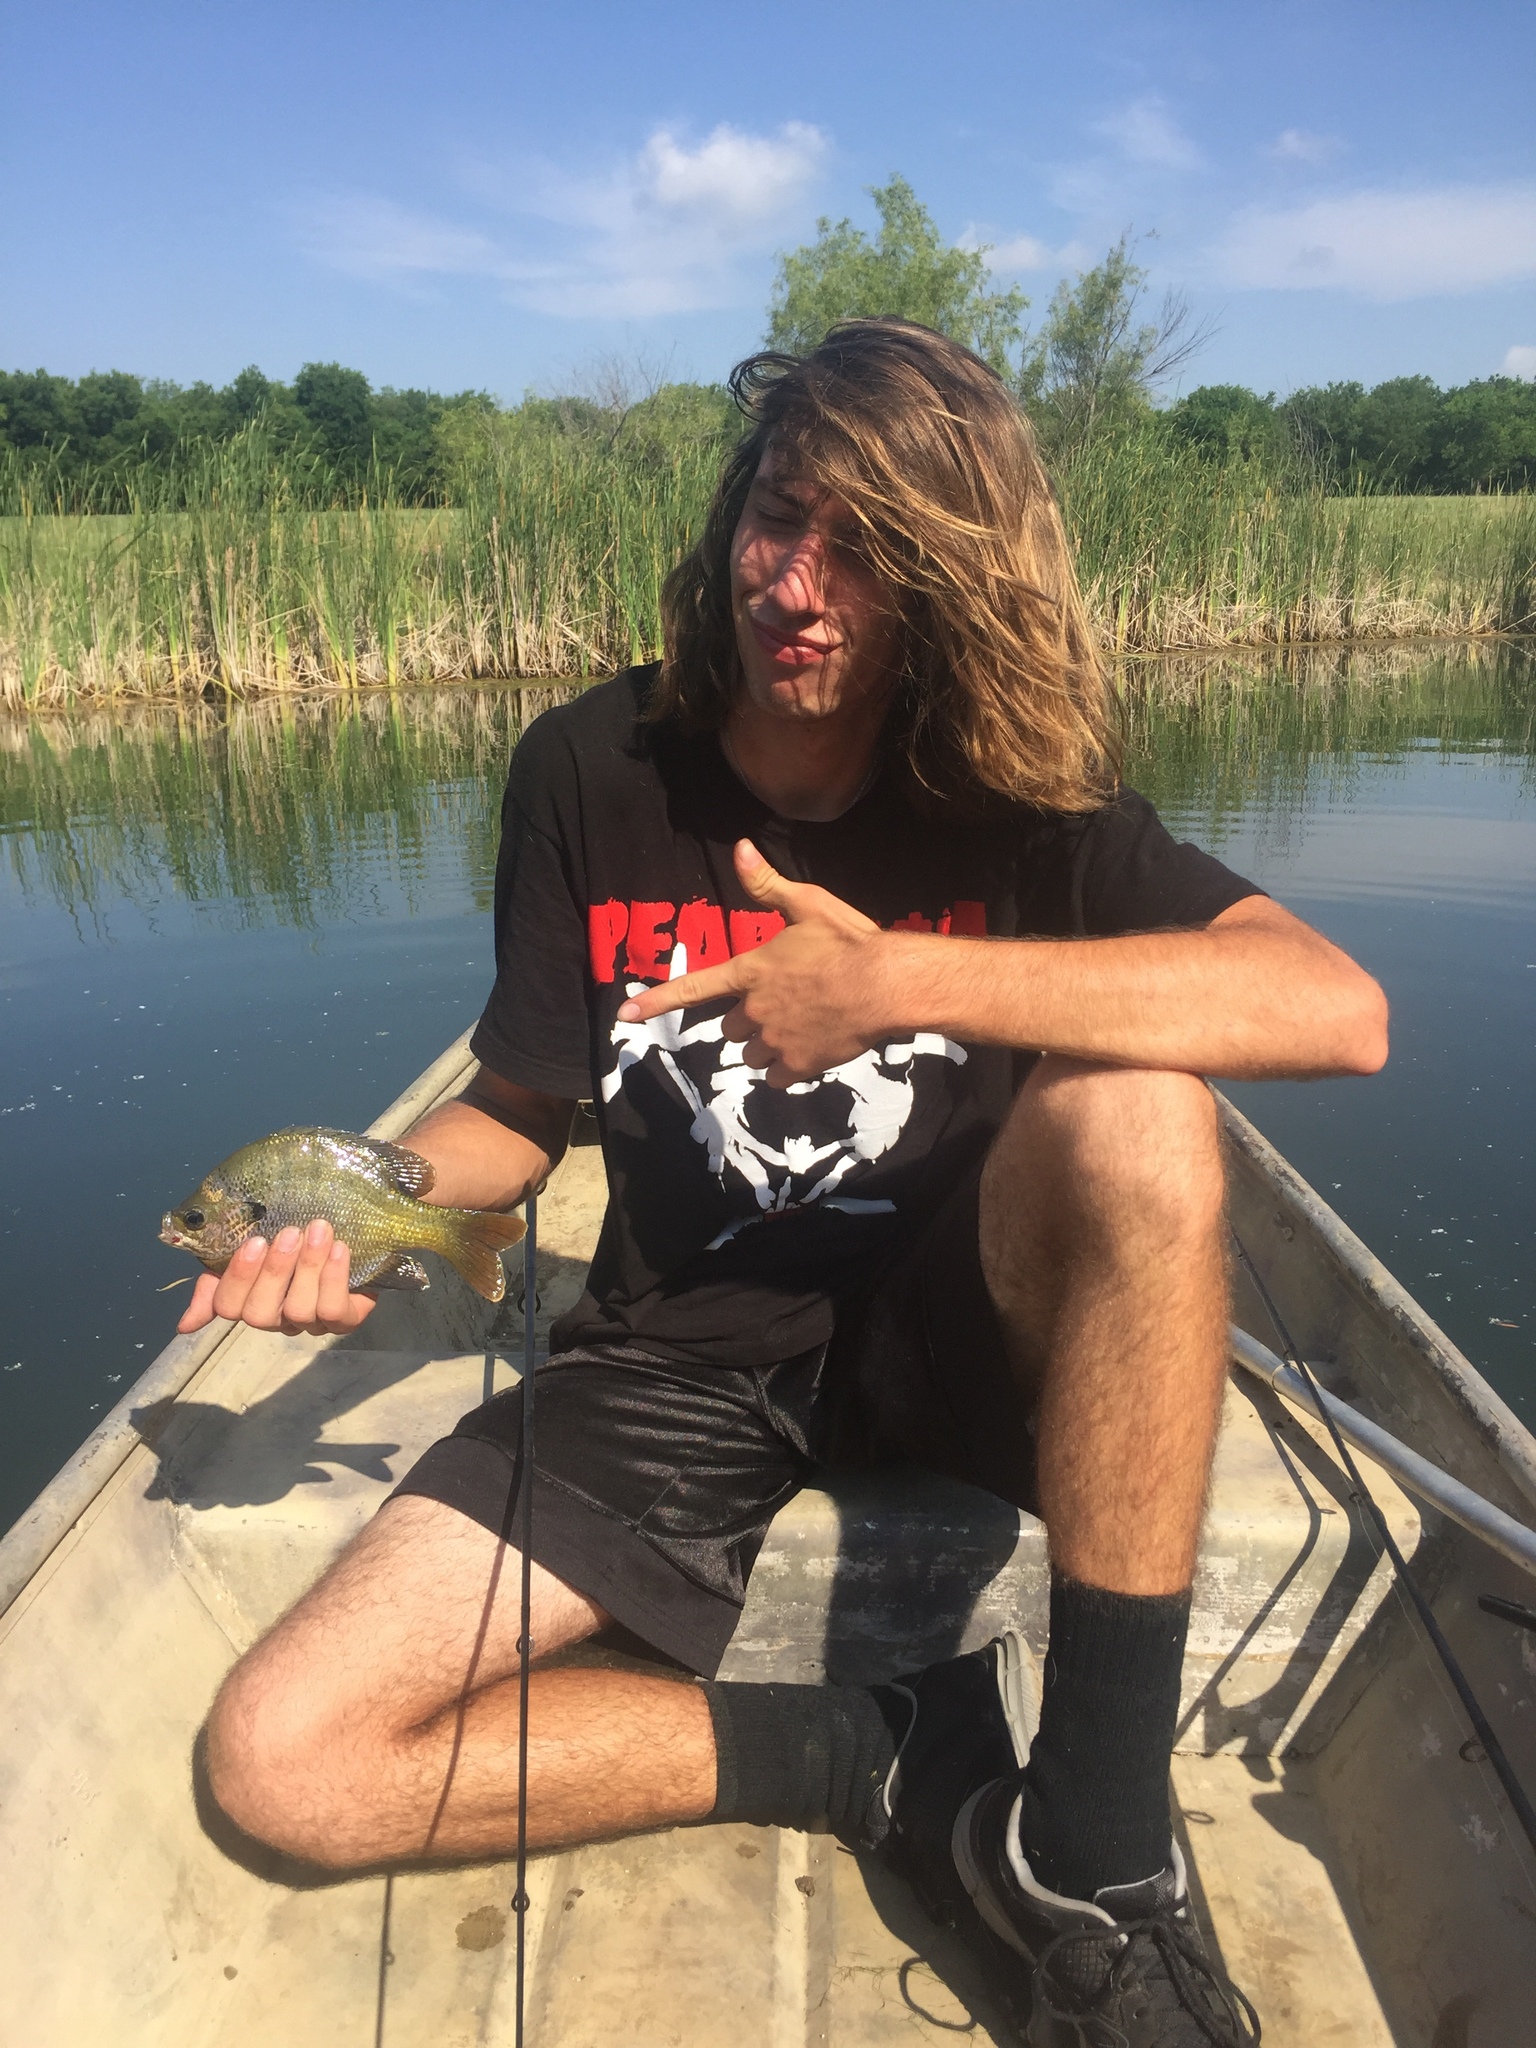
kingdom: Animalia
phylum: Chordata
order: Perciformes
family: Centrarchidae
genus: Lepomis
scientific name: Lepomis macrochirus
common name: Bluegill
